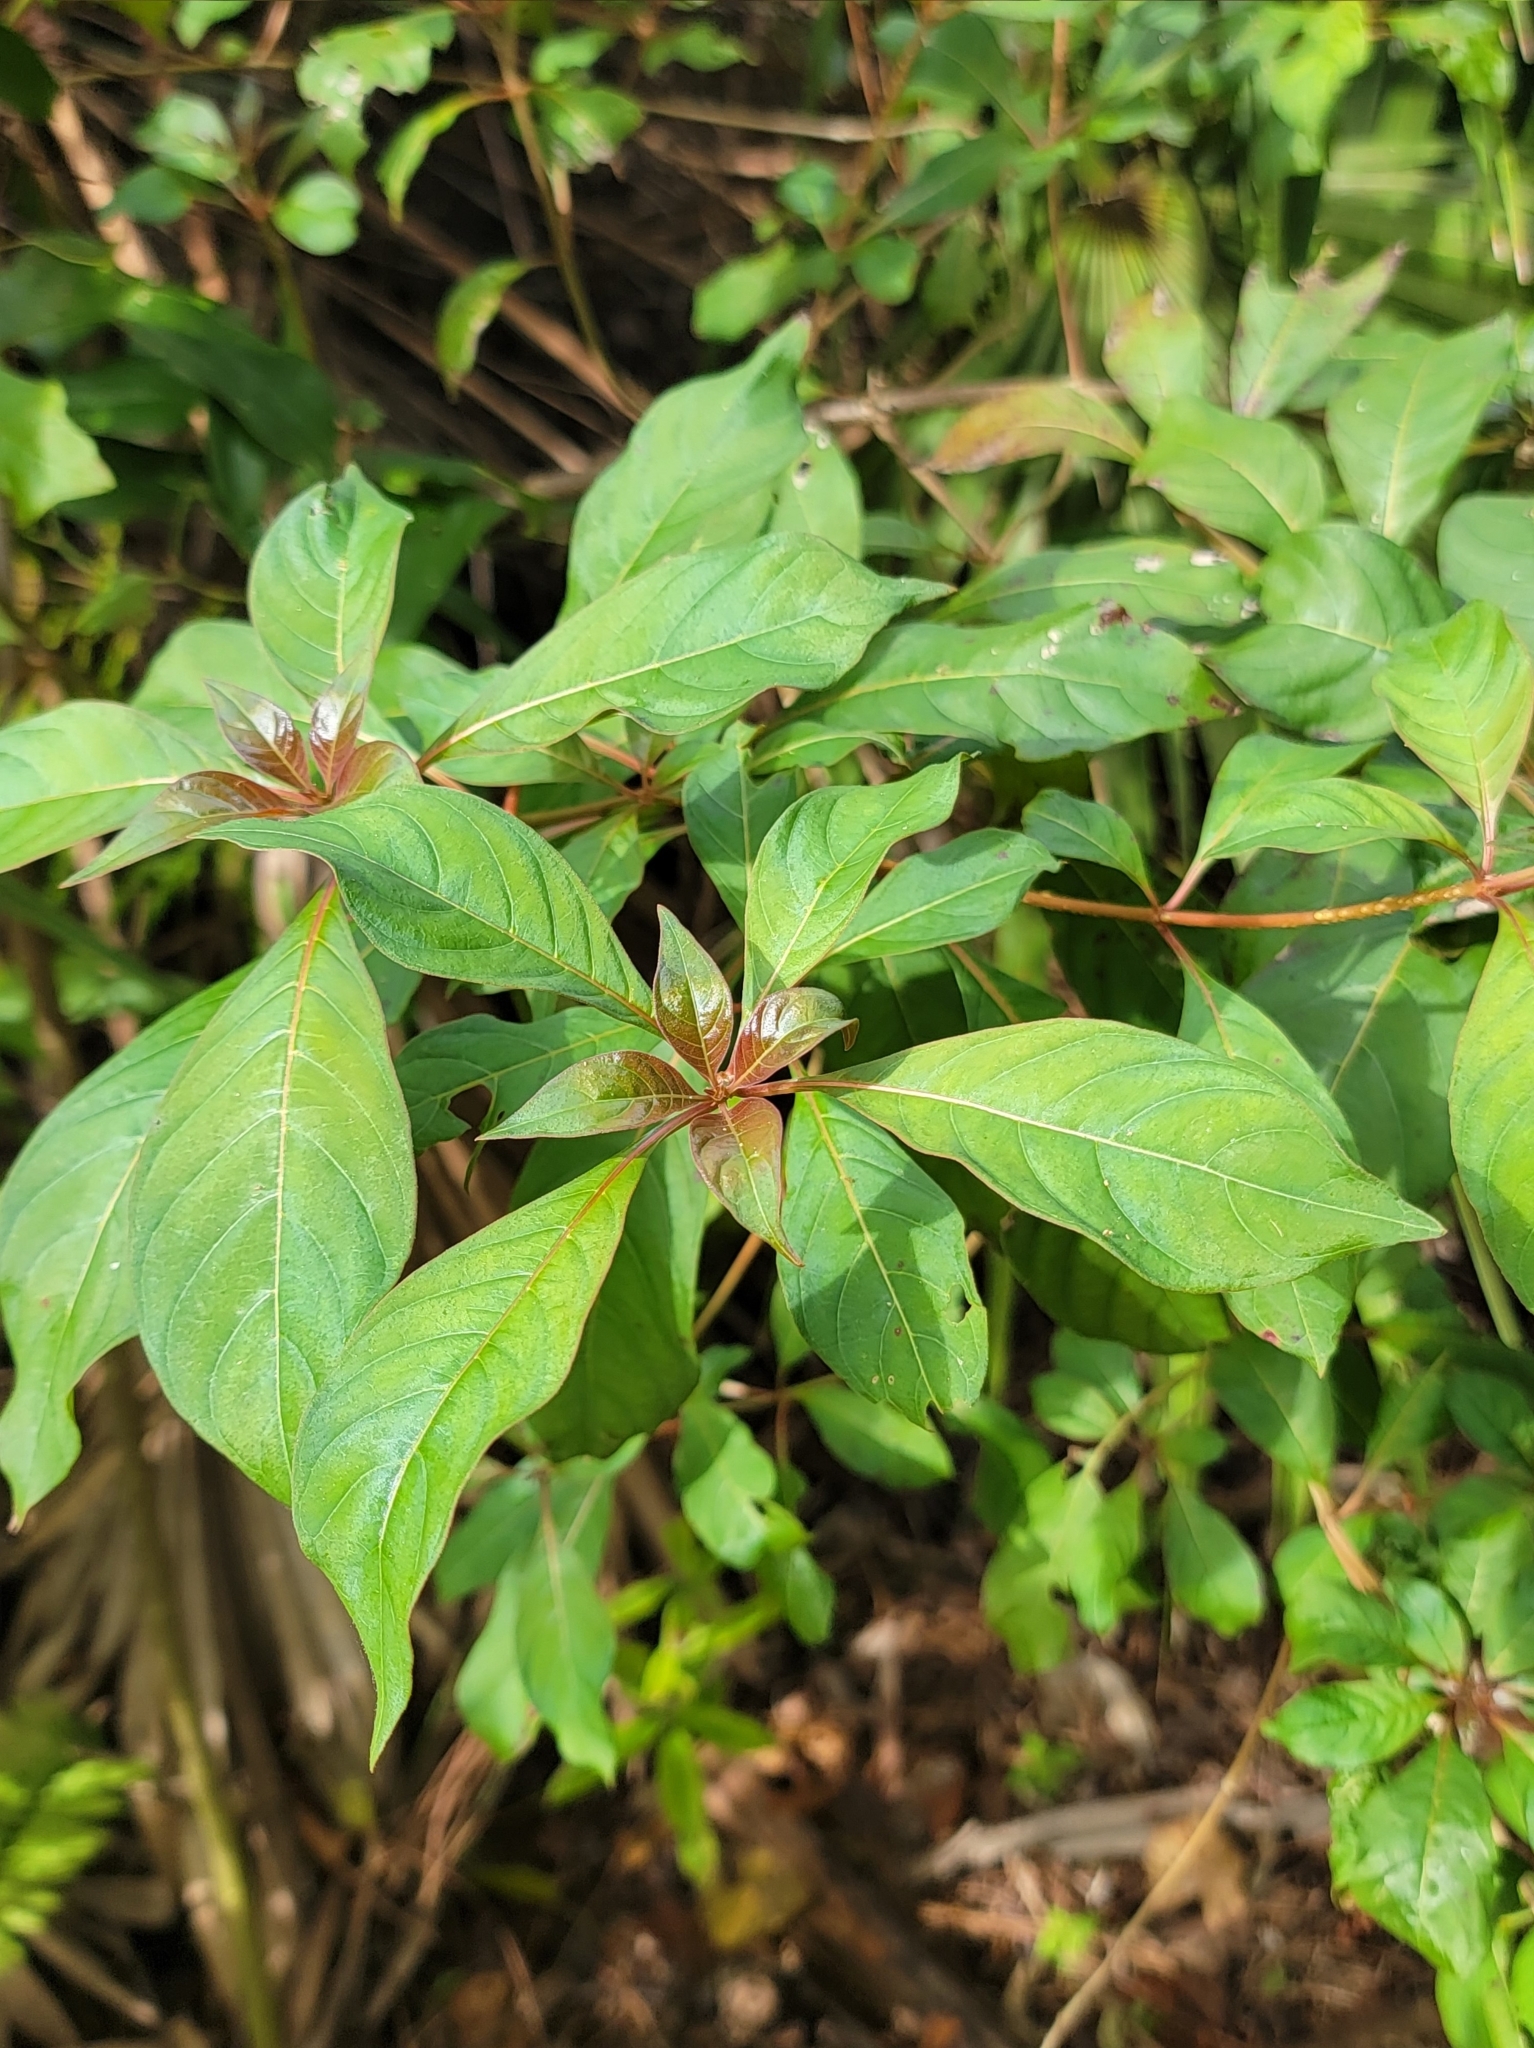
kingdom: Plantae
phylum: Tracheophyta
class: Magnoliopsida
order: Gentianales
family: Rubiaceae
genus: Hamelia
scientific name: Hamelia patens
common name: Redhead
